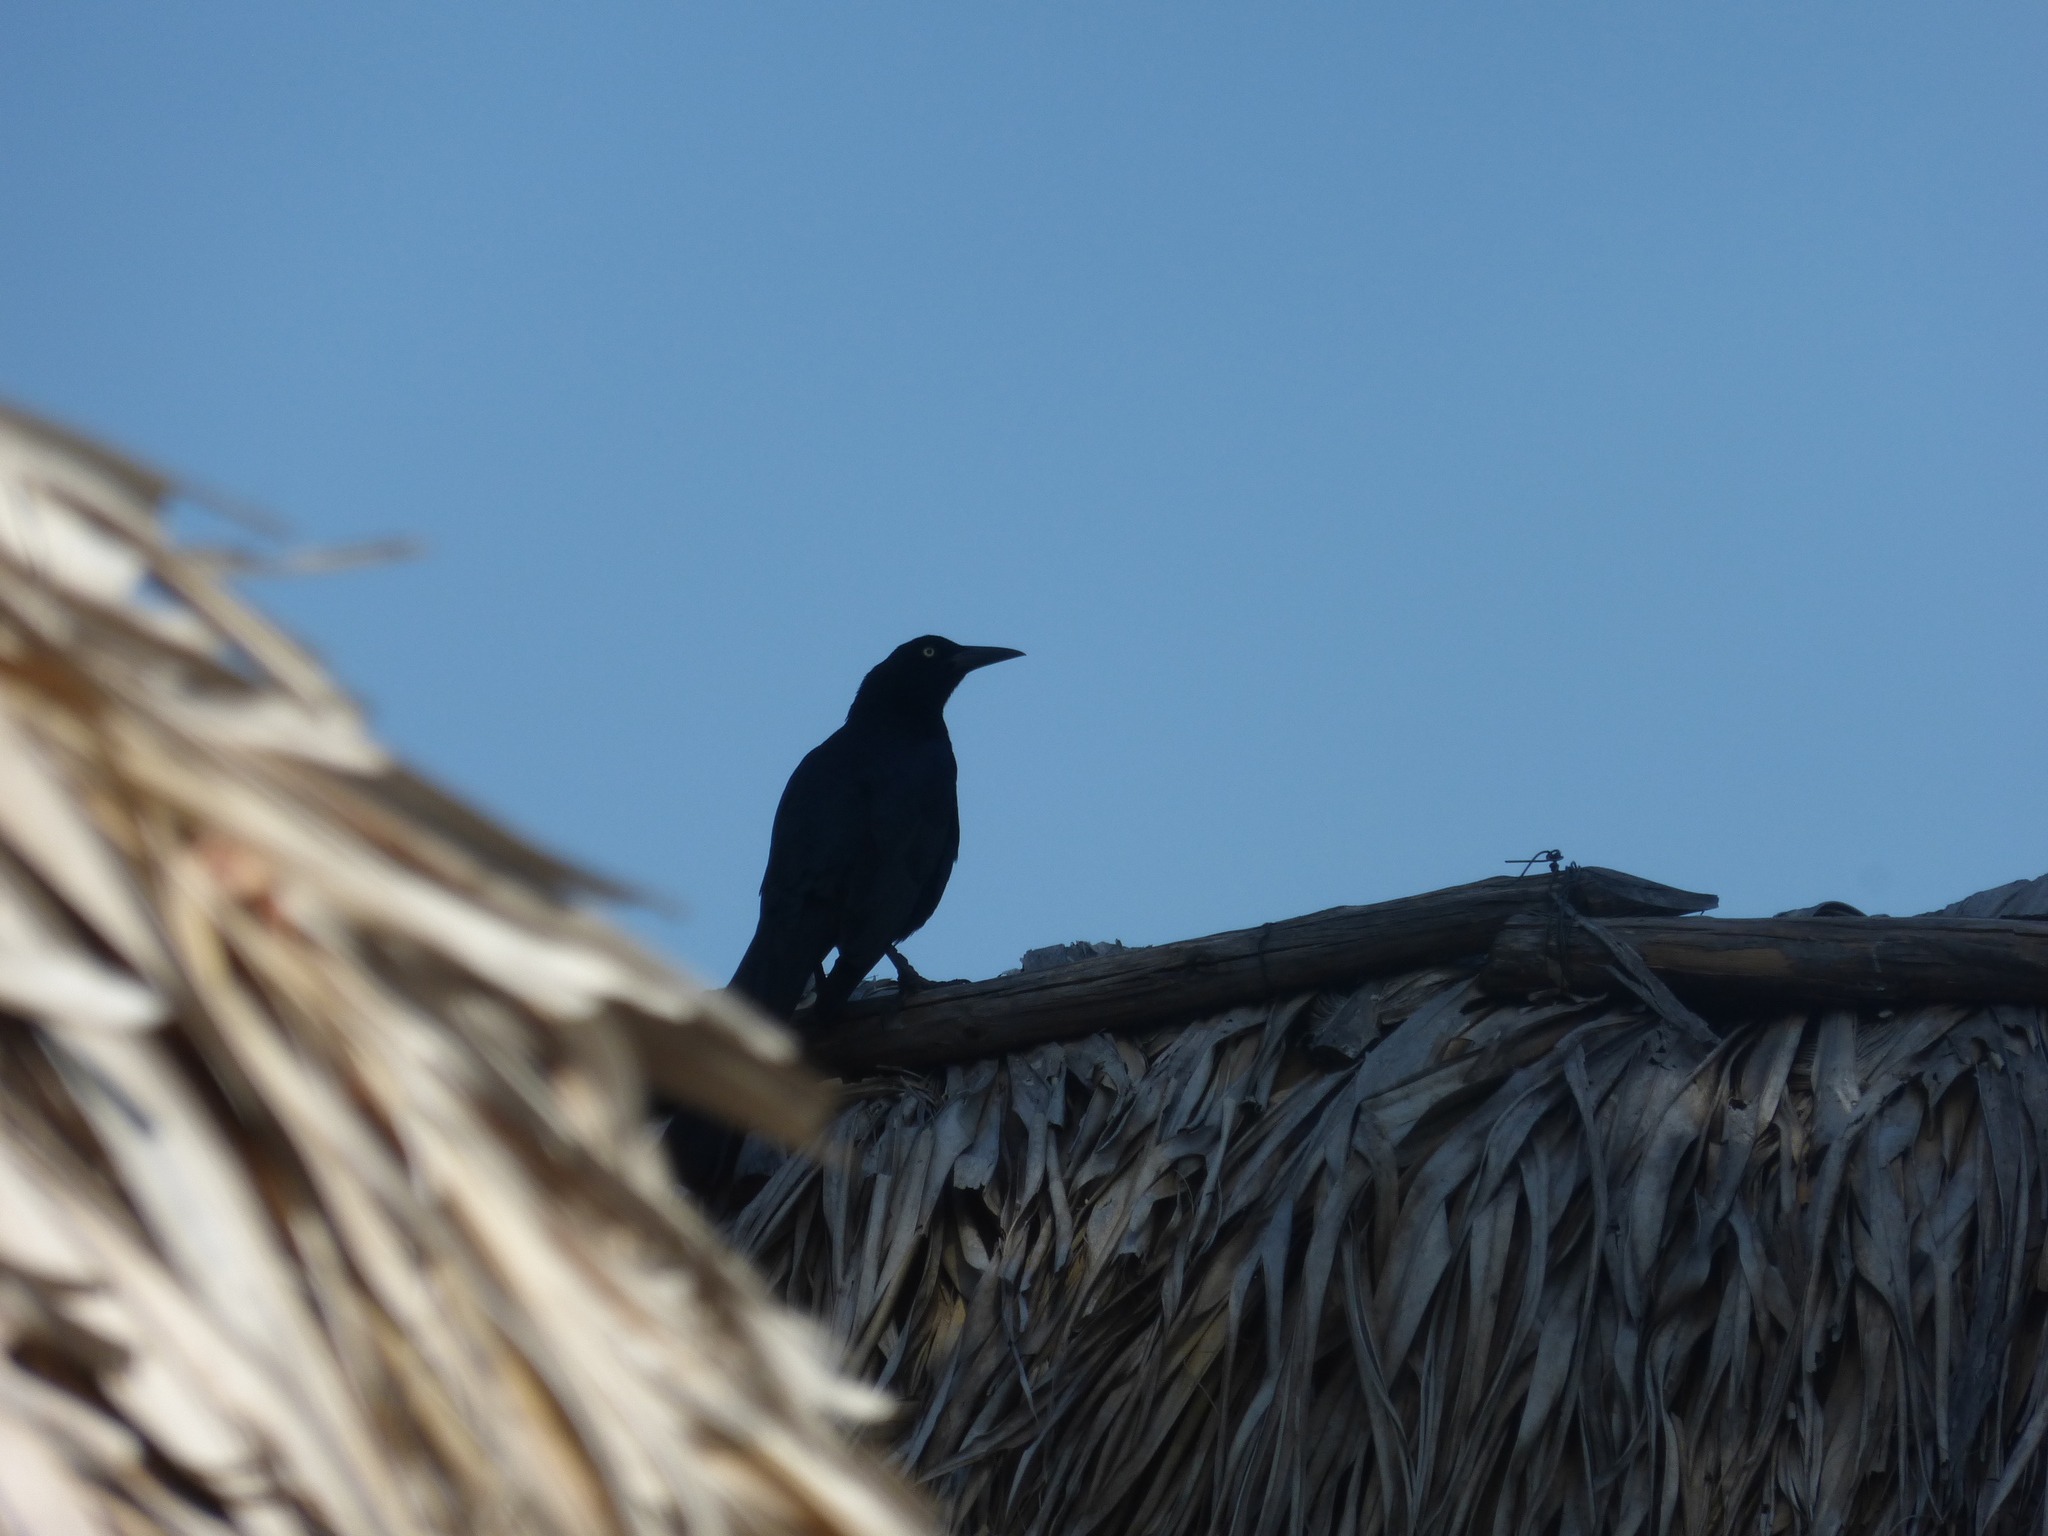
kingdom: Animalia
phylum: Chordata
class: Aves
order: Passeriformes
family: Icteridae
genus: Quiscalus
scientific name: Quiscalus mexicanus
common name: Great-tailed grackle
